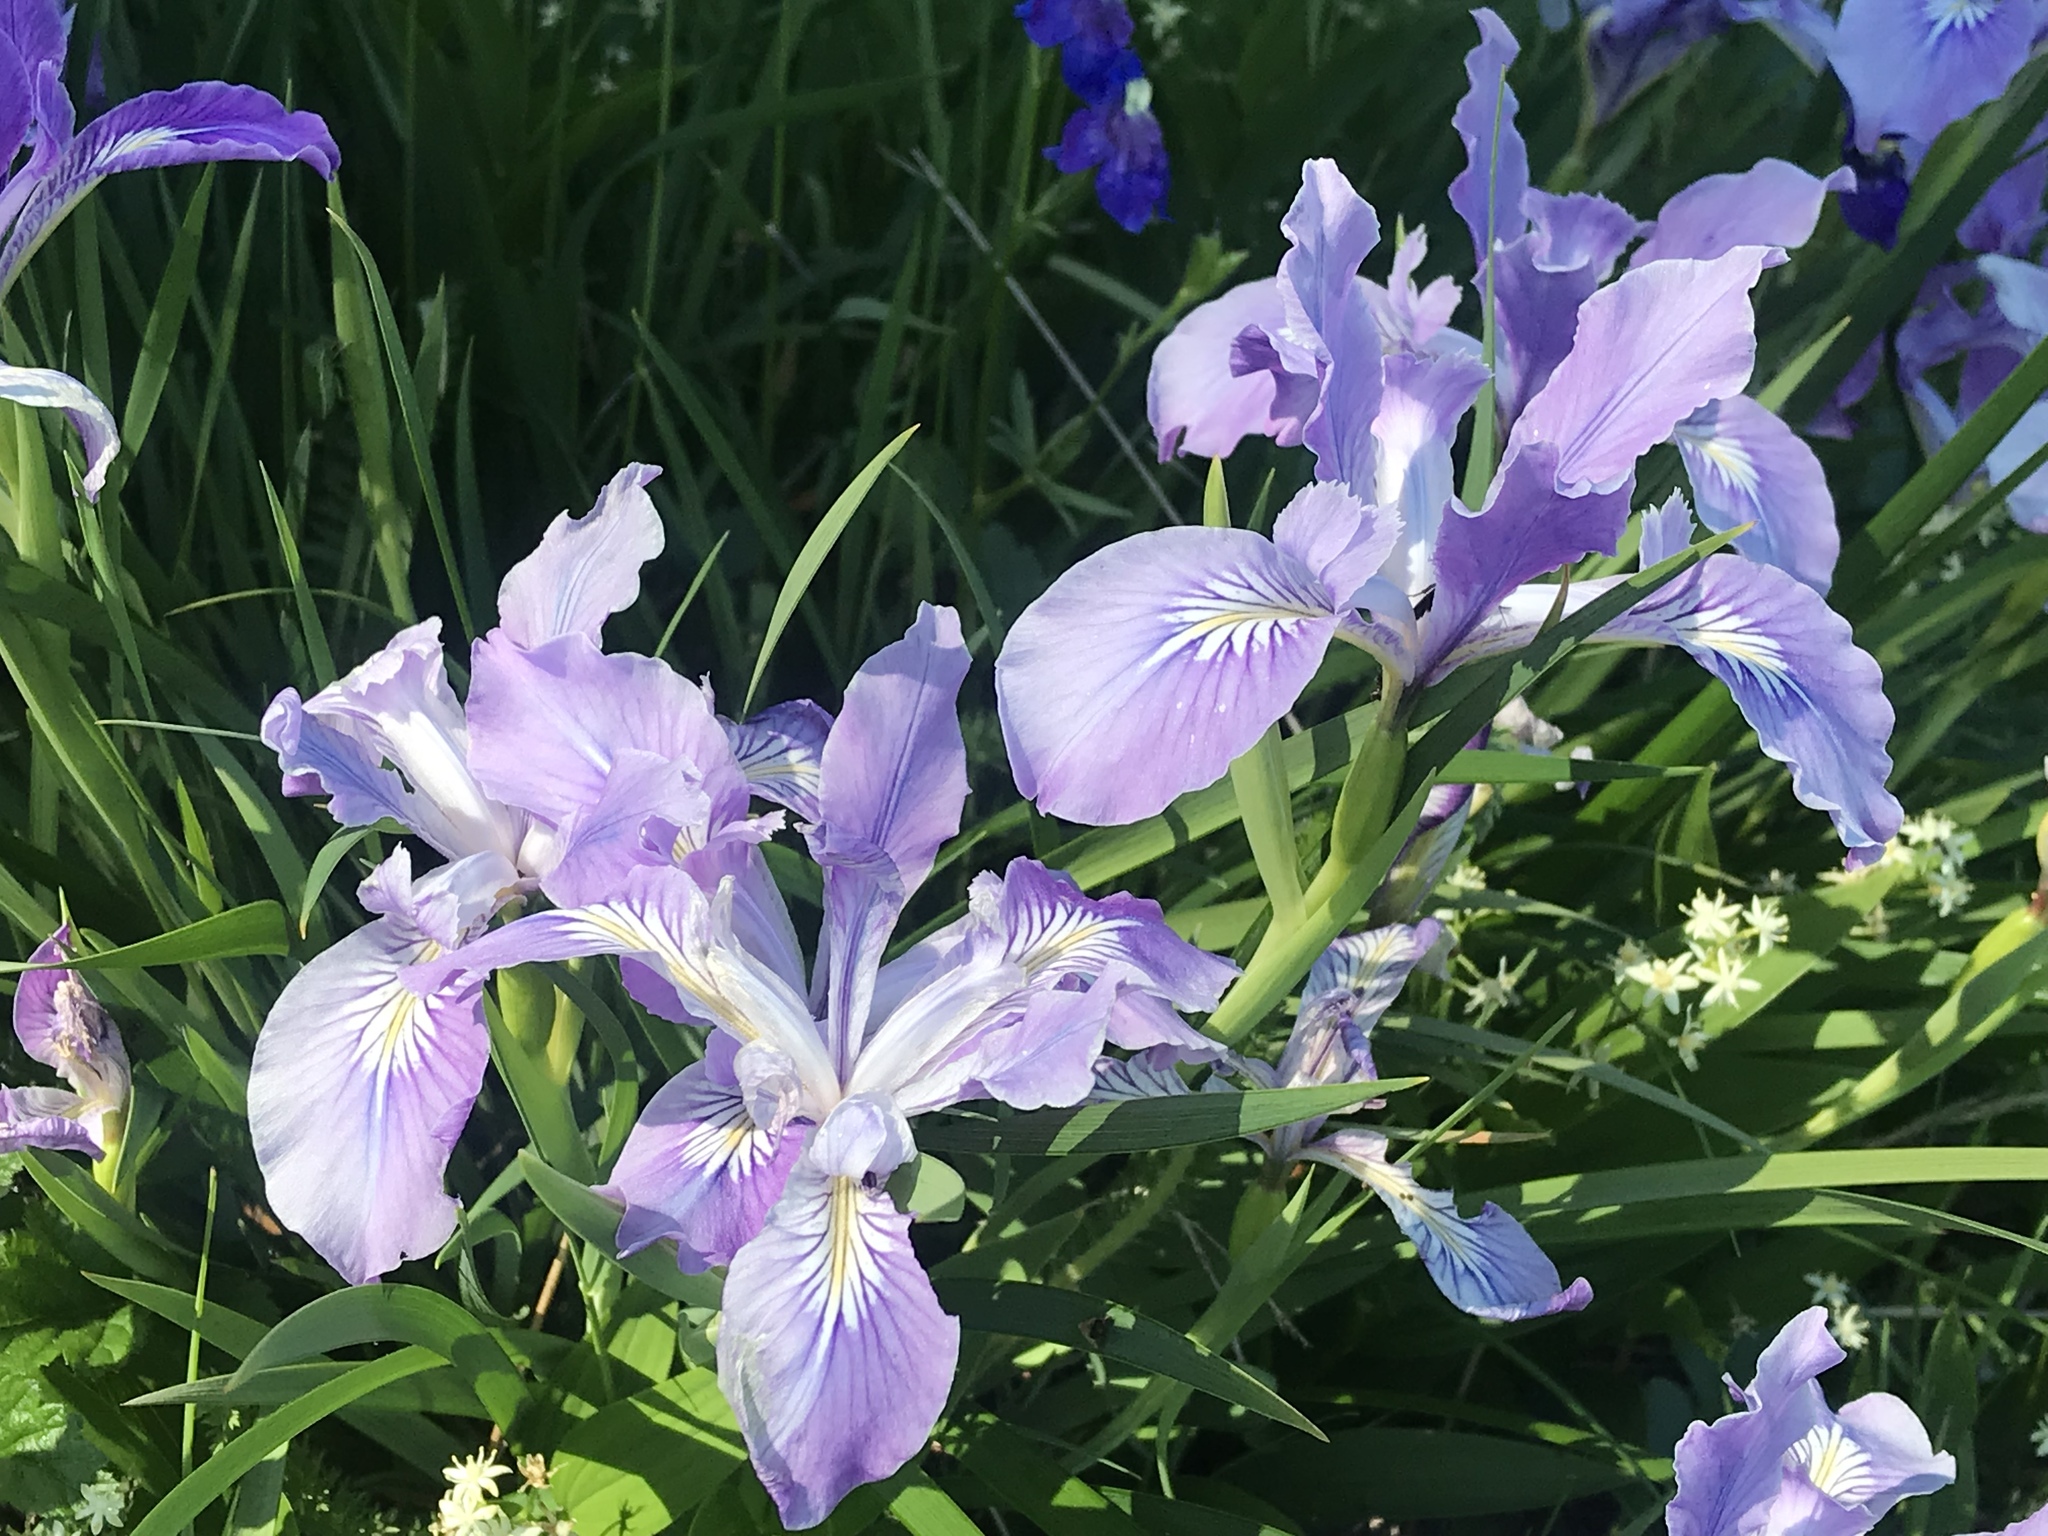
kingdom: Plantae
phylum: Tracheophyta
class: Liliopsida
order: Asparagales
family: Iridaceae
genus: Iris
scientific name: Iris tenax
